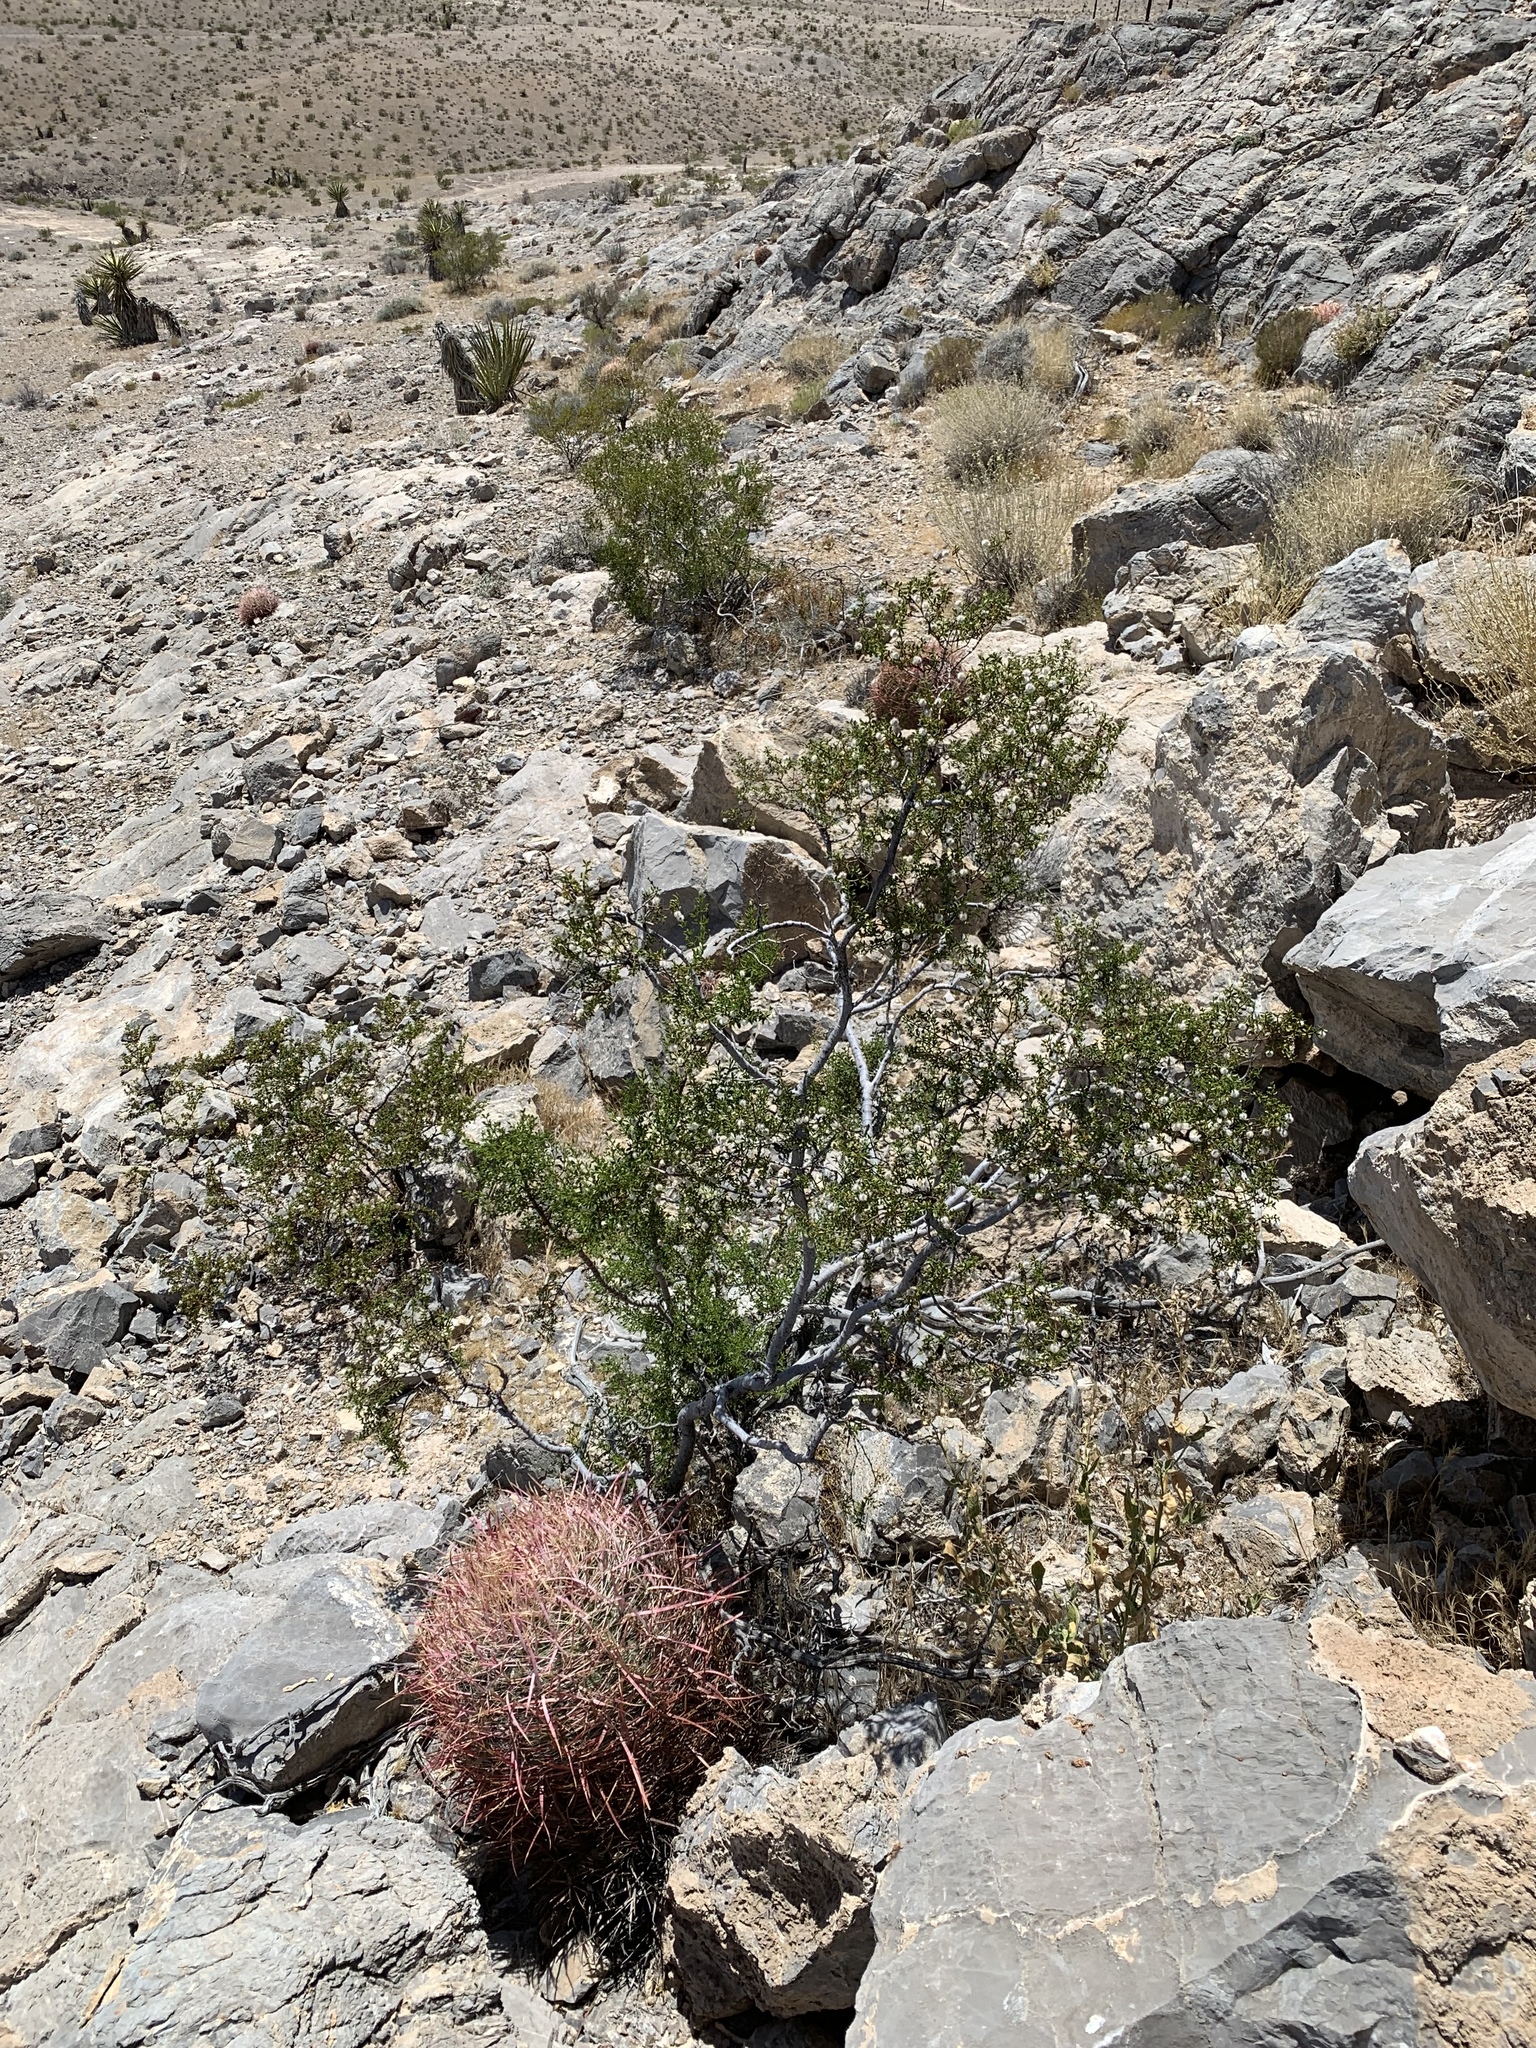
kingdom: Plantae
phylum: Tracheophyta
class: Magnoliopsida
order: Caryophyllales
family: Cactaceae
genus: Ferocactus
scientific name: Ferocactus cylindraceus
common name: California barrel cactus
